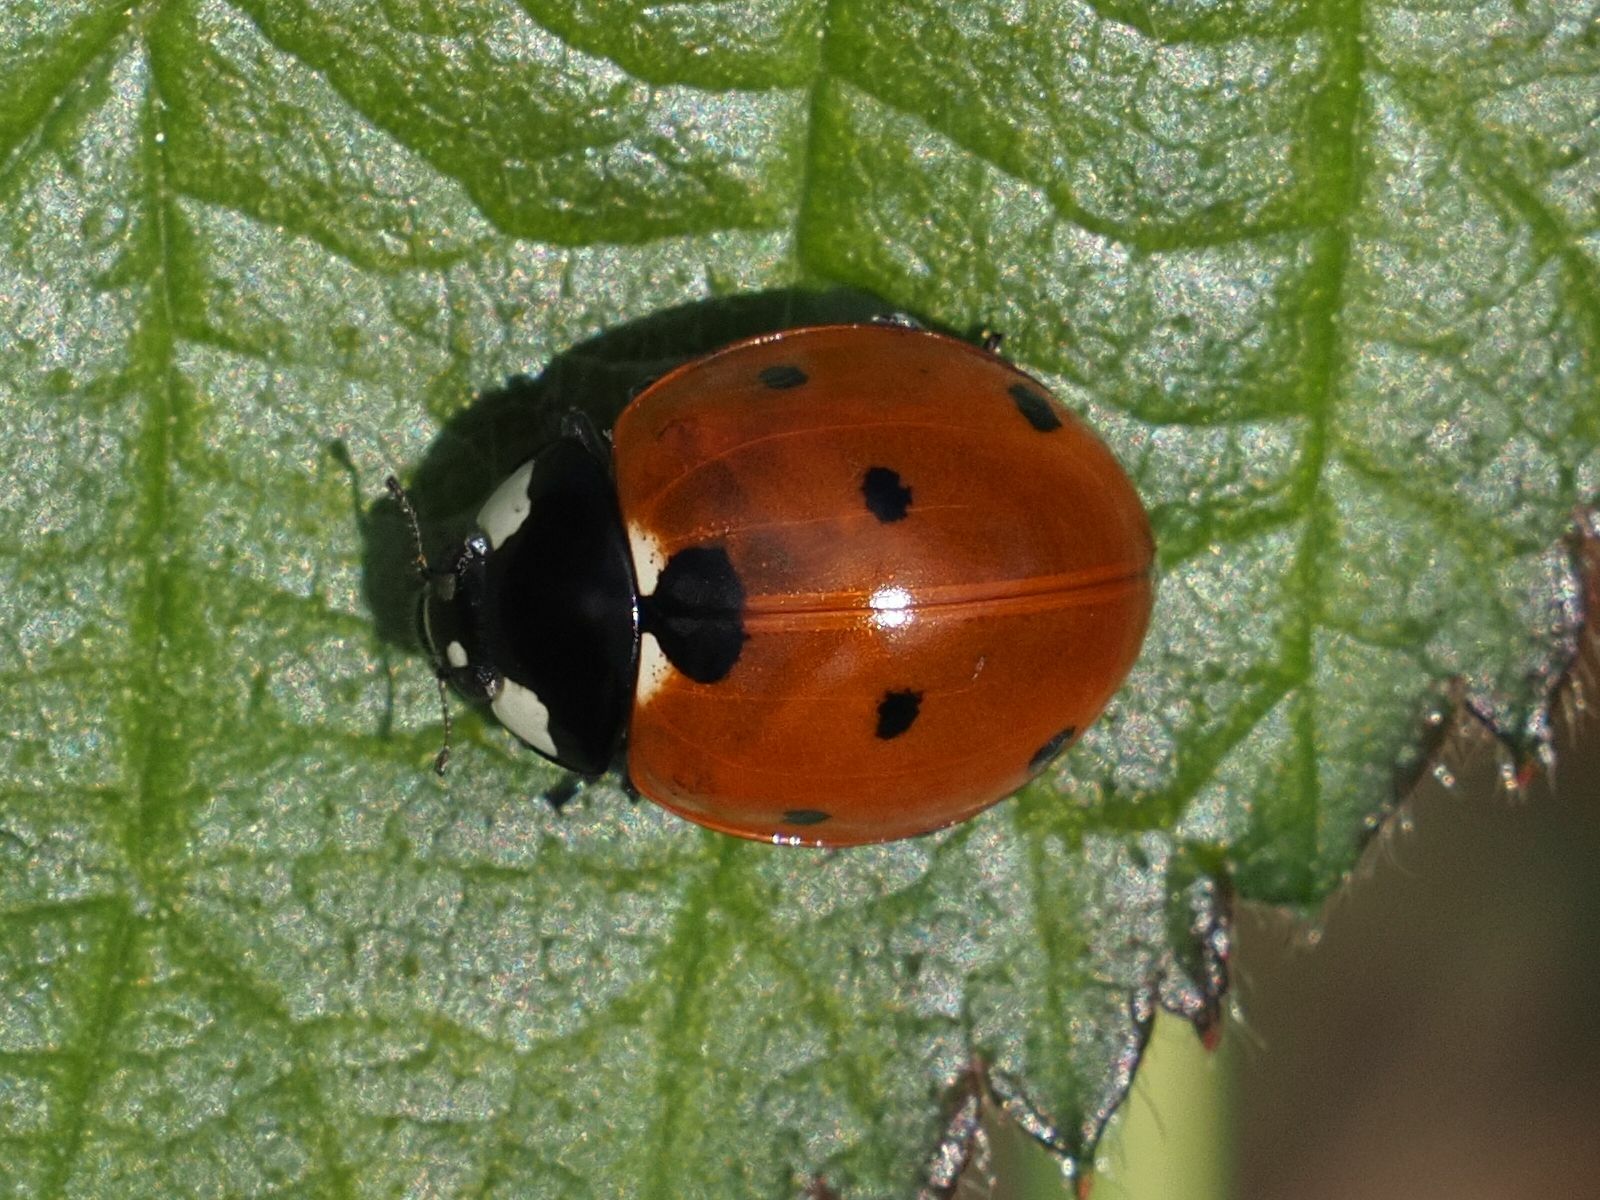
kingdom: Animalia
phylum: Arthropoda
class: Insecta
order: Coleoptera
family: Coccinellidae
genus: Coccinella
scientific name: Coccinella septempunctata
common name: Sevenspotted lady beetle
